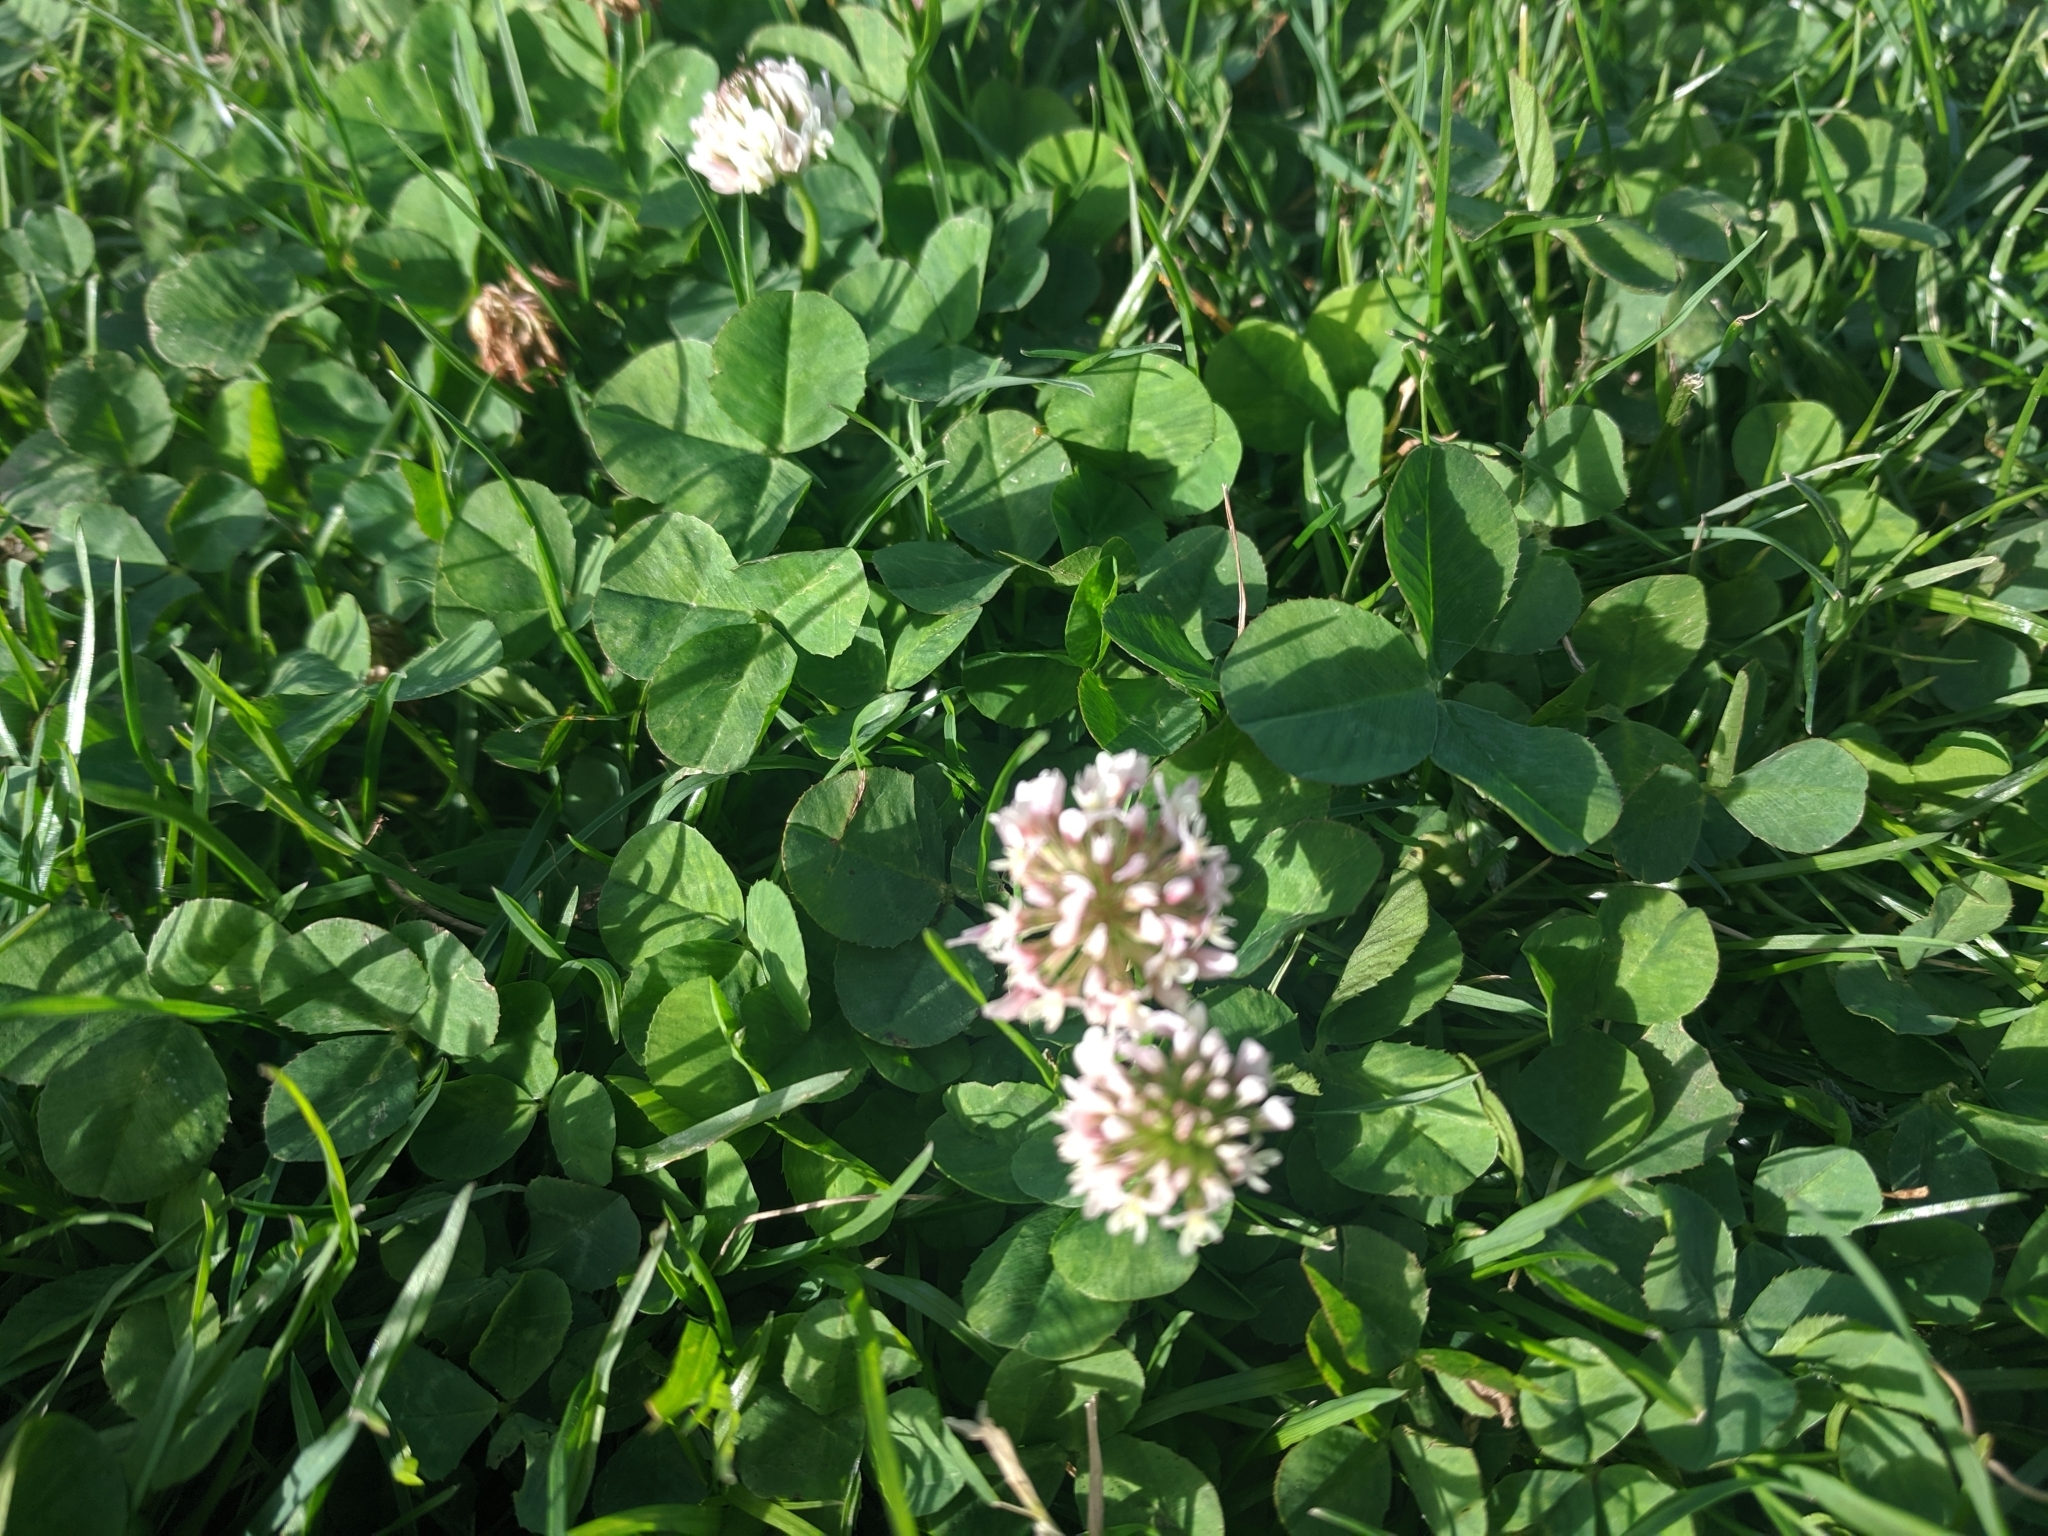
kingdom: Plantae
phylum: Tracheophyta
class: Magnoliopsida
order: Fabales
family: Fabaceae
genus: Trifolium
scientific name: Trifolium repens
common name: White clover
